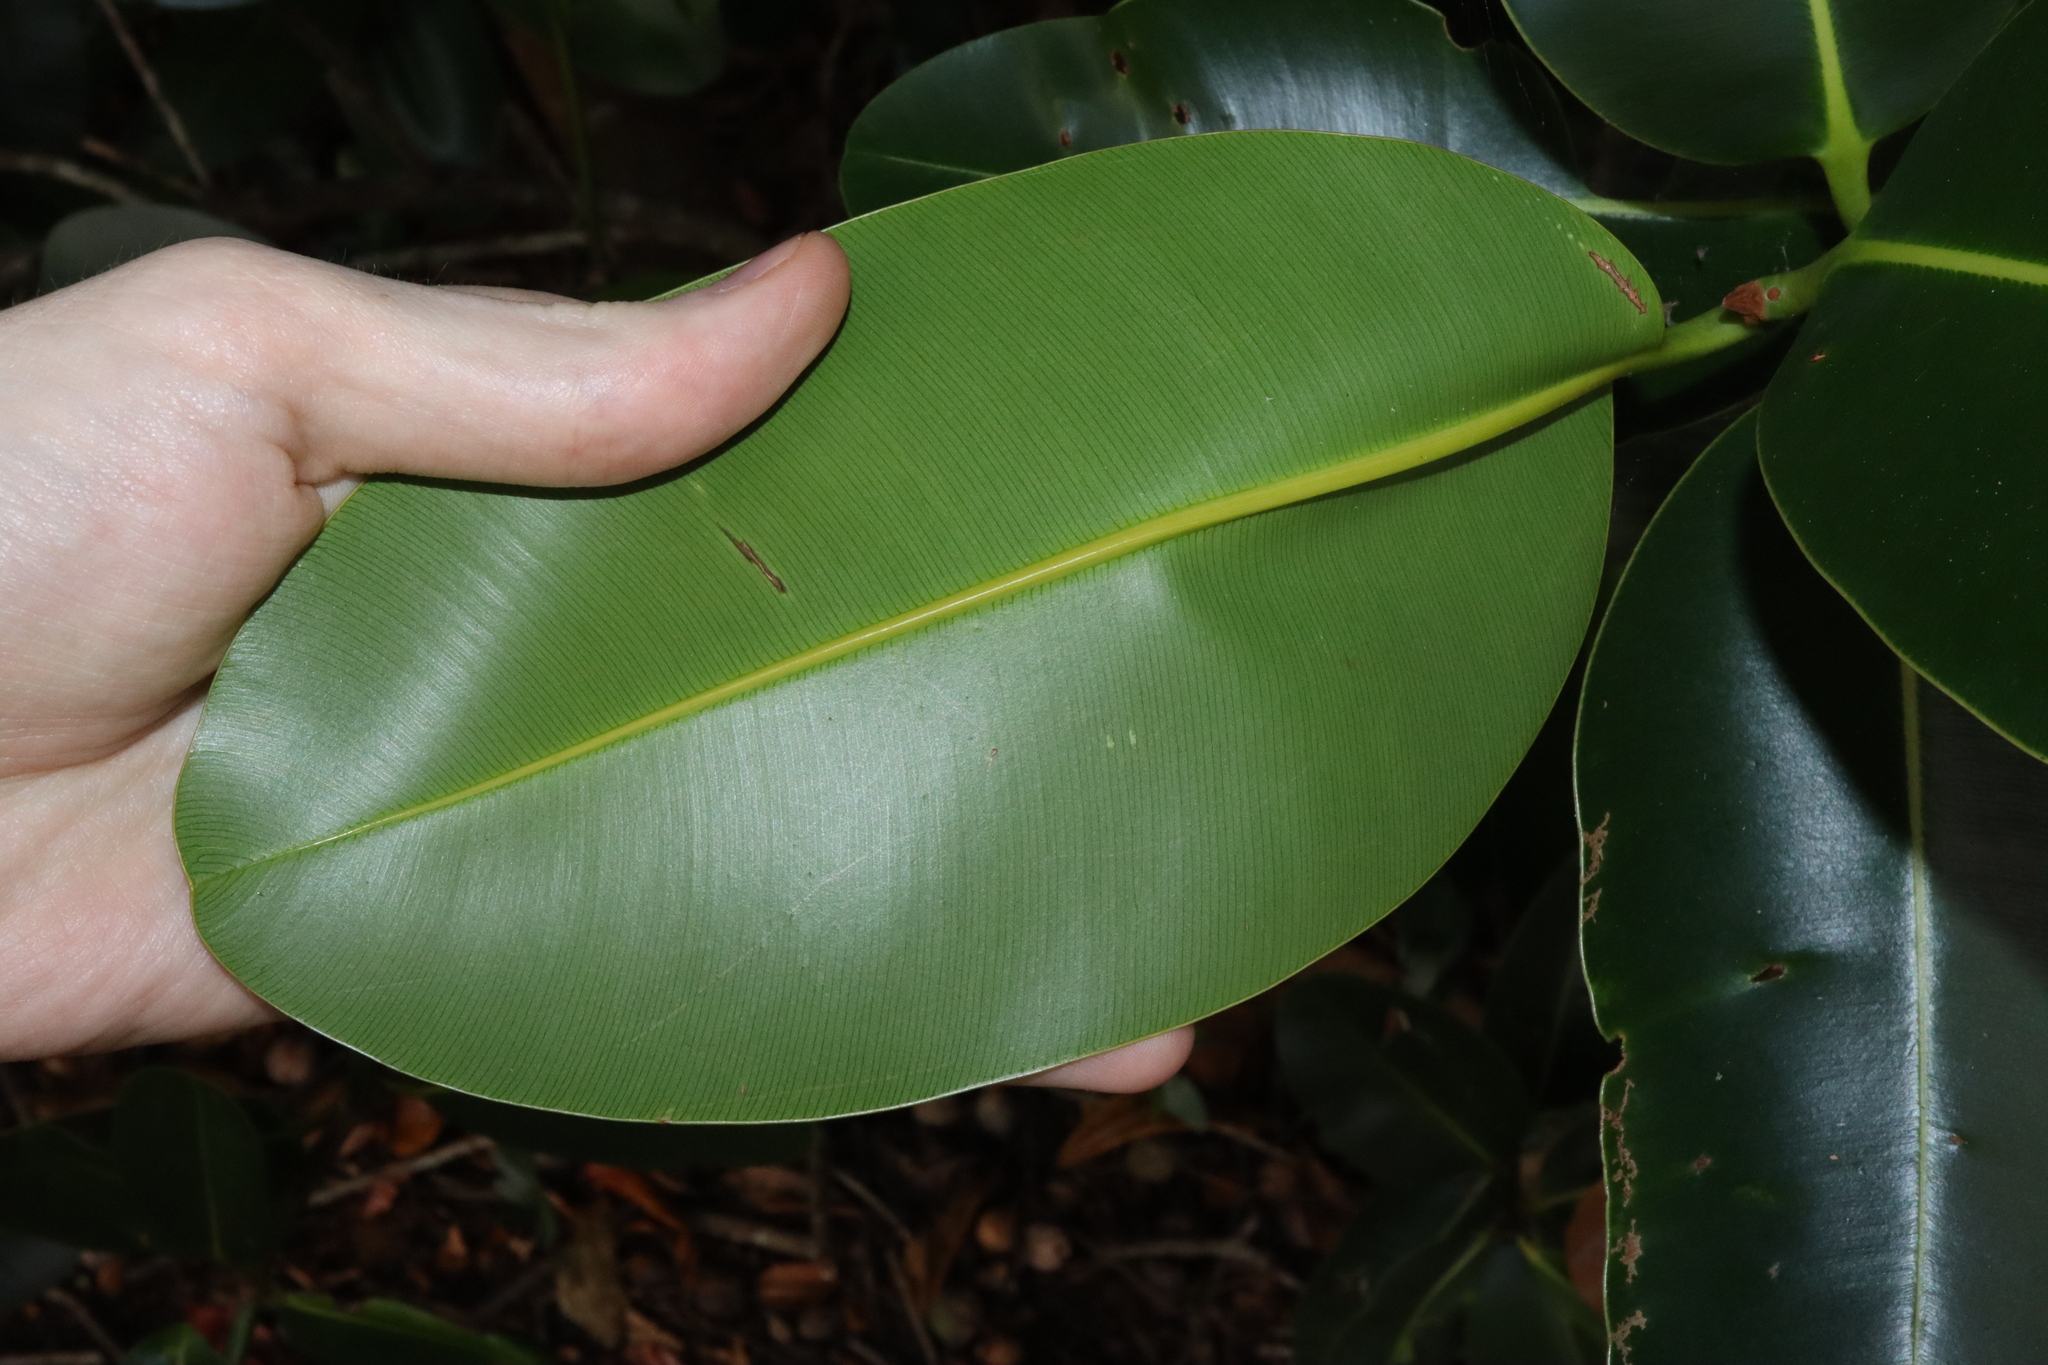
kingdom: Plantae
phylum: Tracheophyta
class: Magnoliopsida
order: Malpighiales
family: Calophyllaceae
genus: Calophyllum
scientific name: Calophyllum inophyllum
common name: Alexandrian laurel
